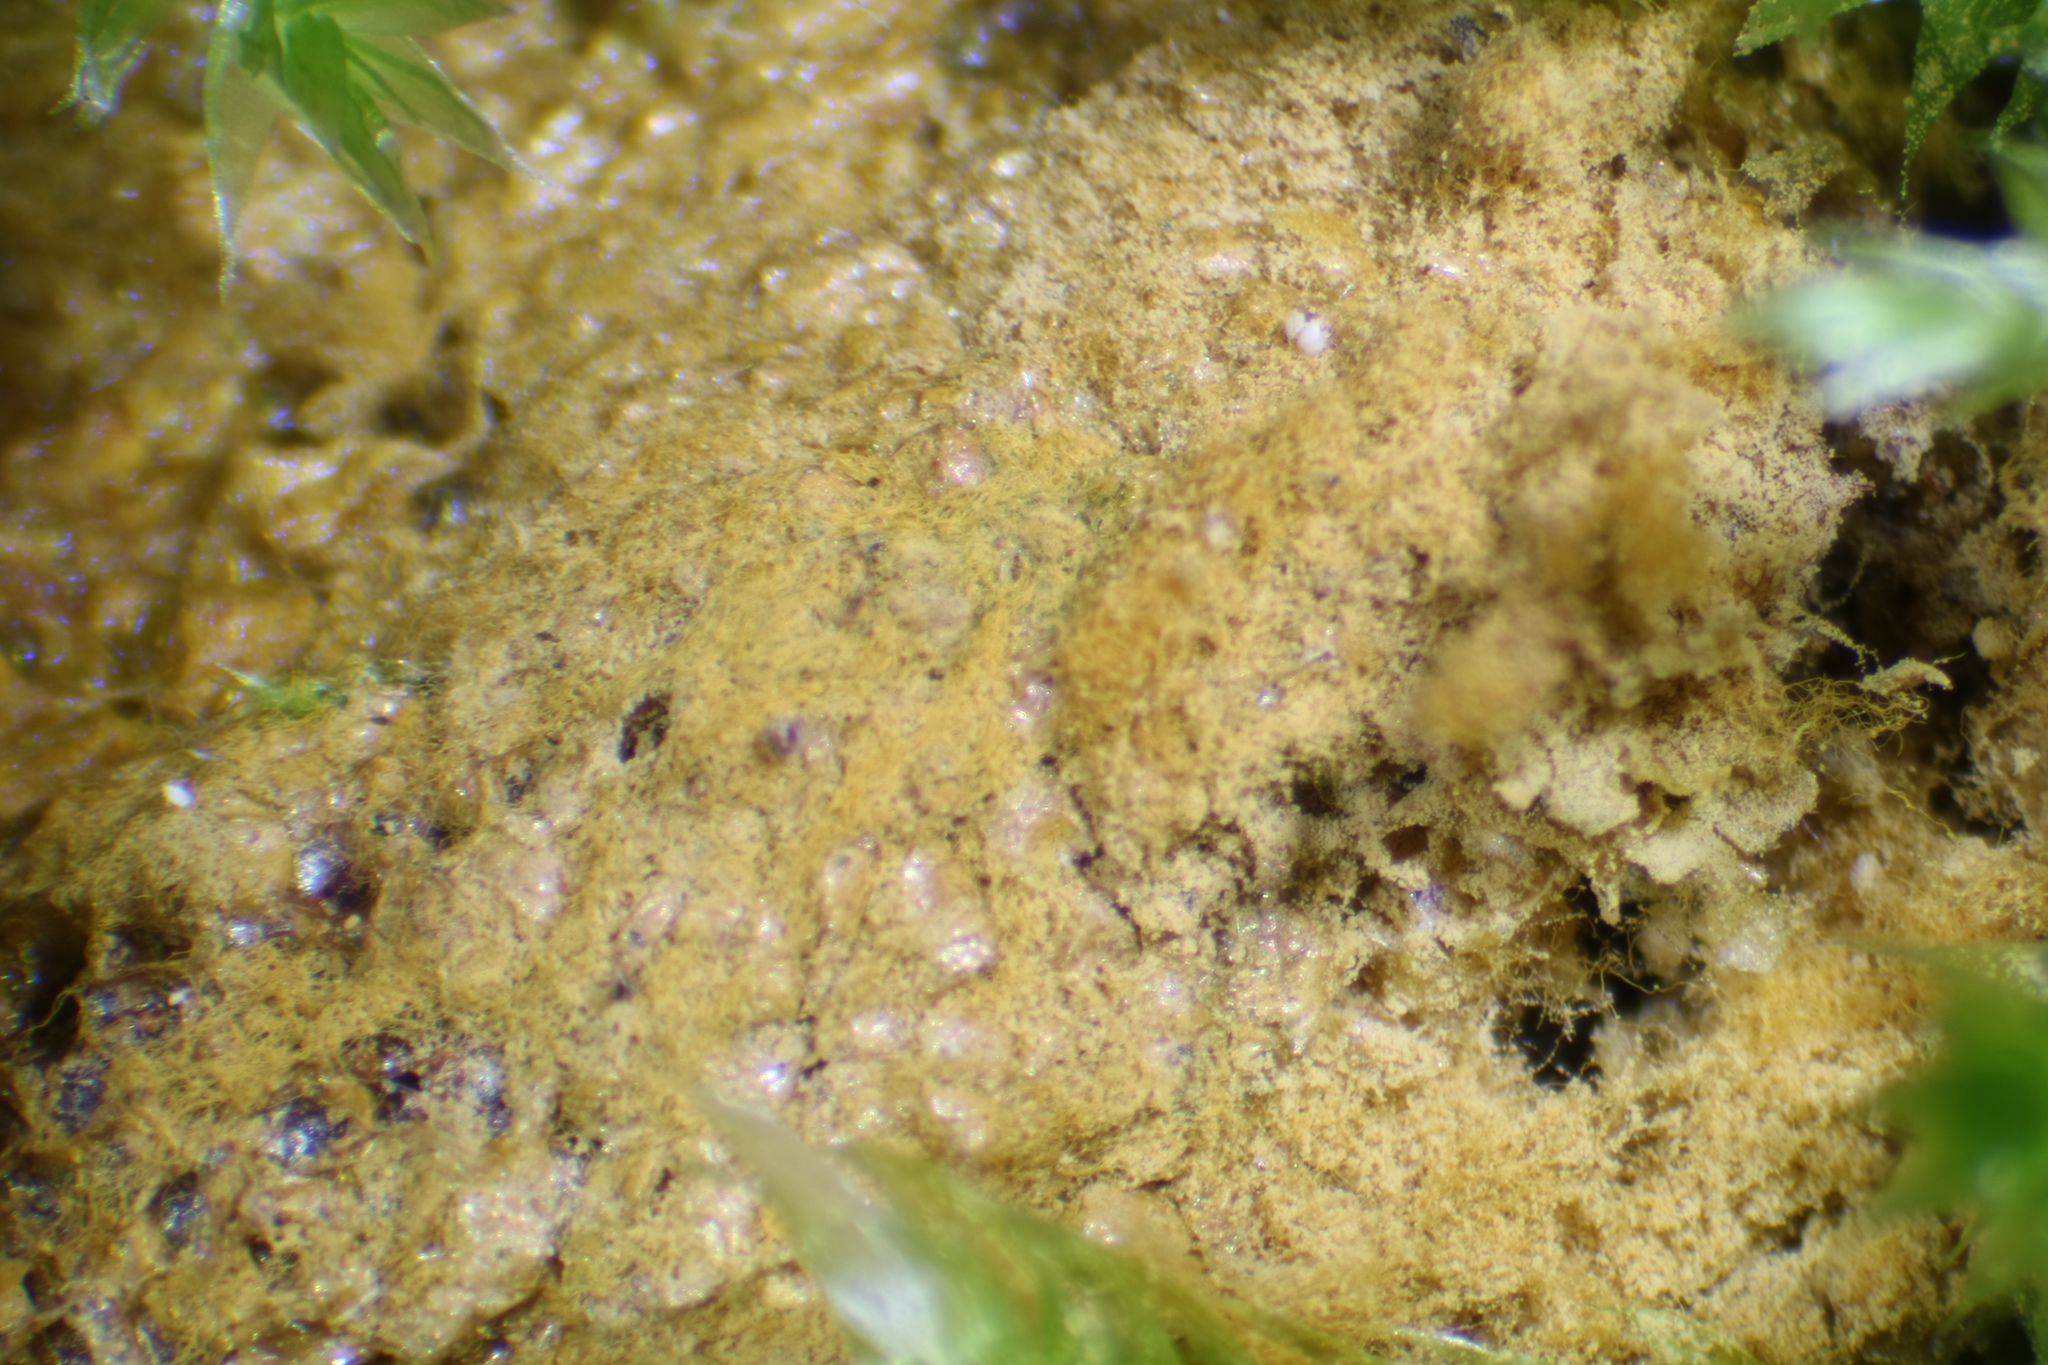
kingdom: Protozoa
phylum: Mycetozoa
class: Myxomycetes
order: Trichiales
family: Trichiaceae
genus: Trichia
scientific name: Trichia scabra
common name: Saffron soldiers
